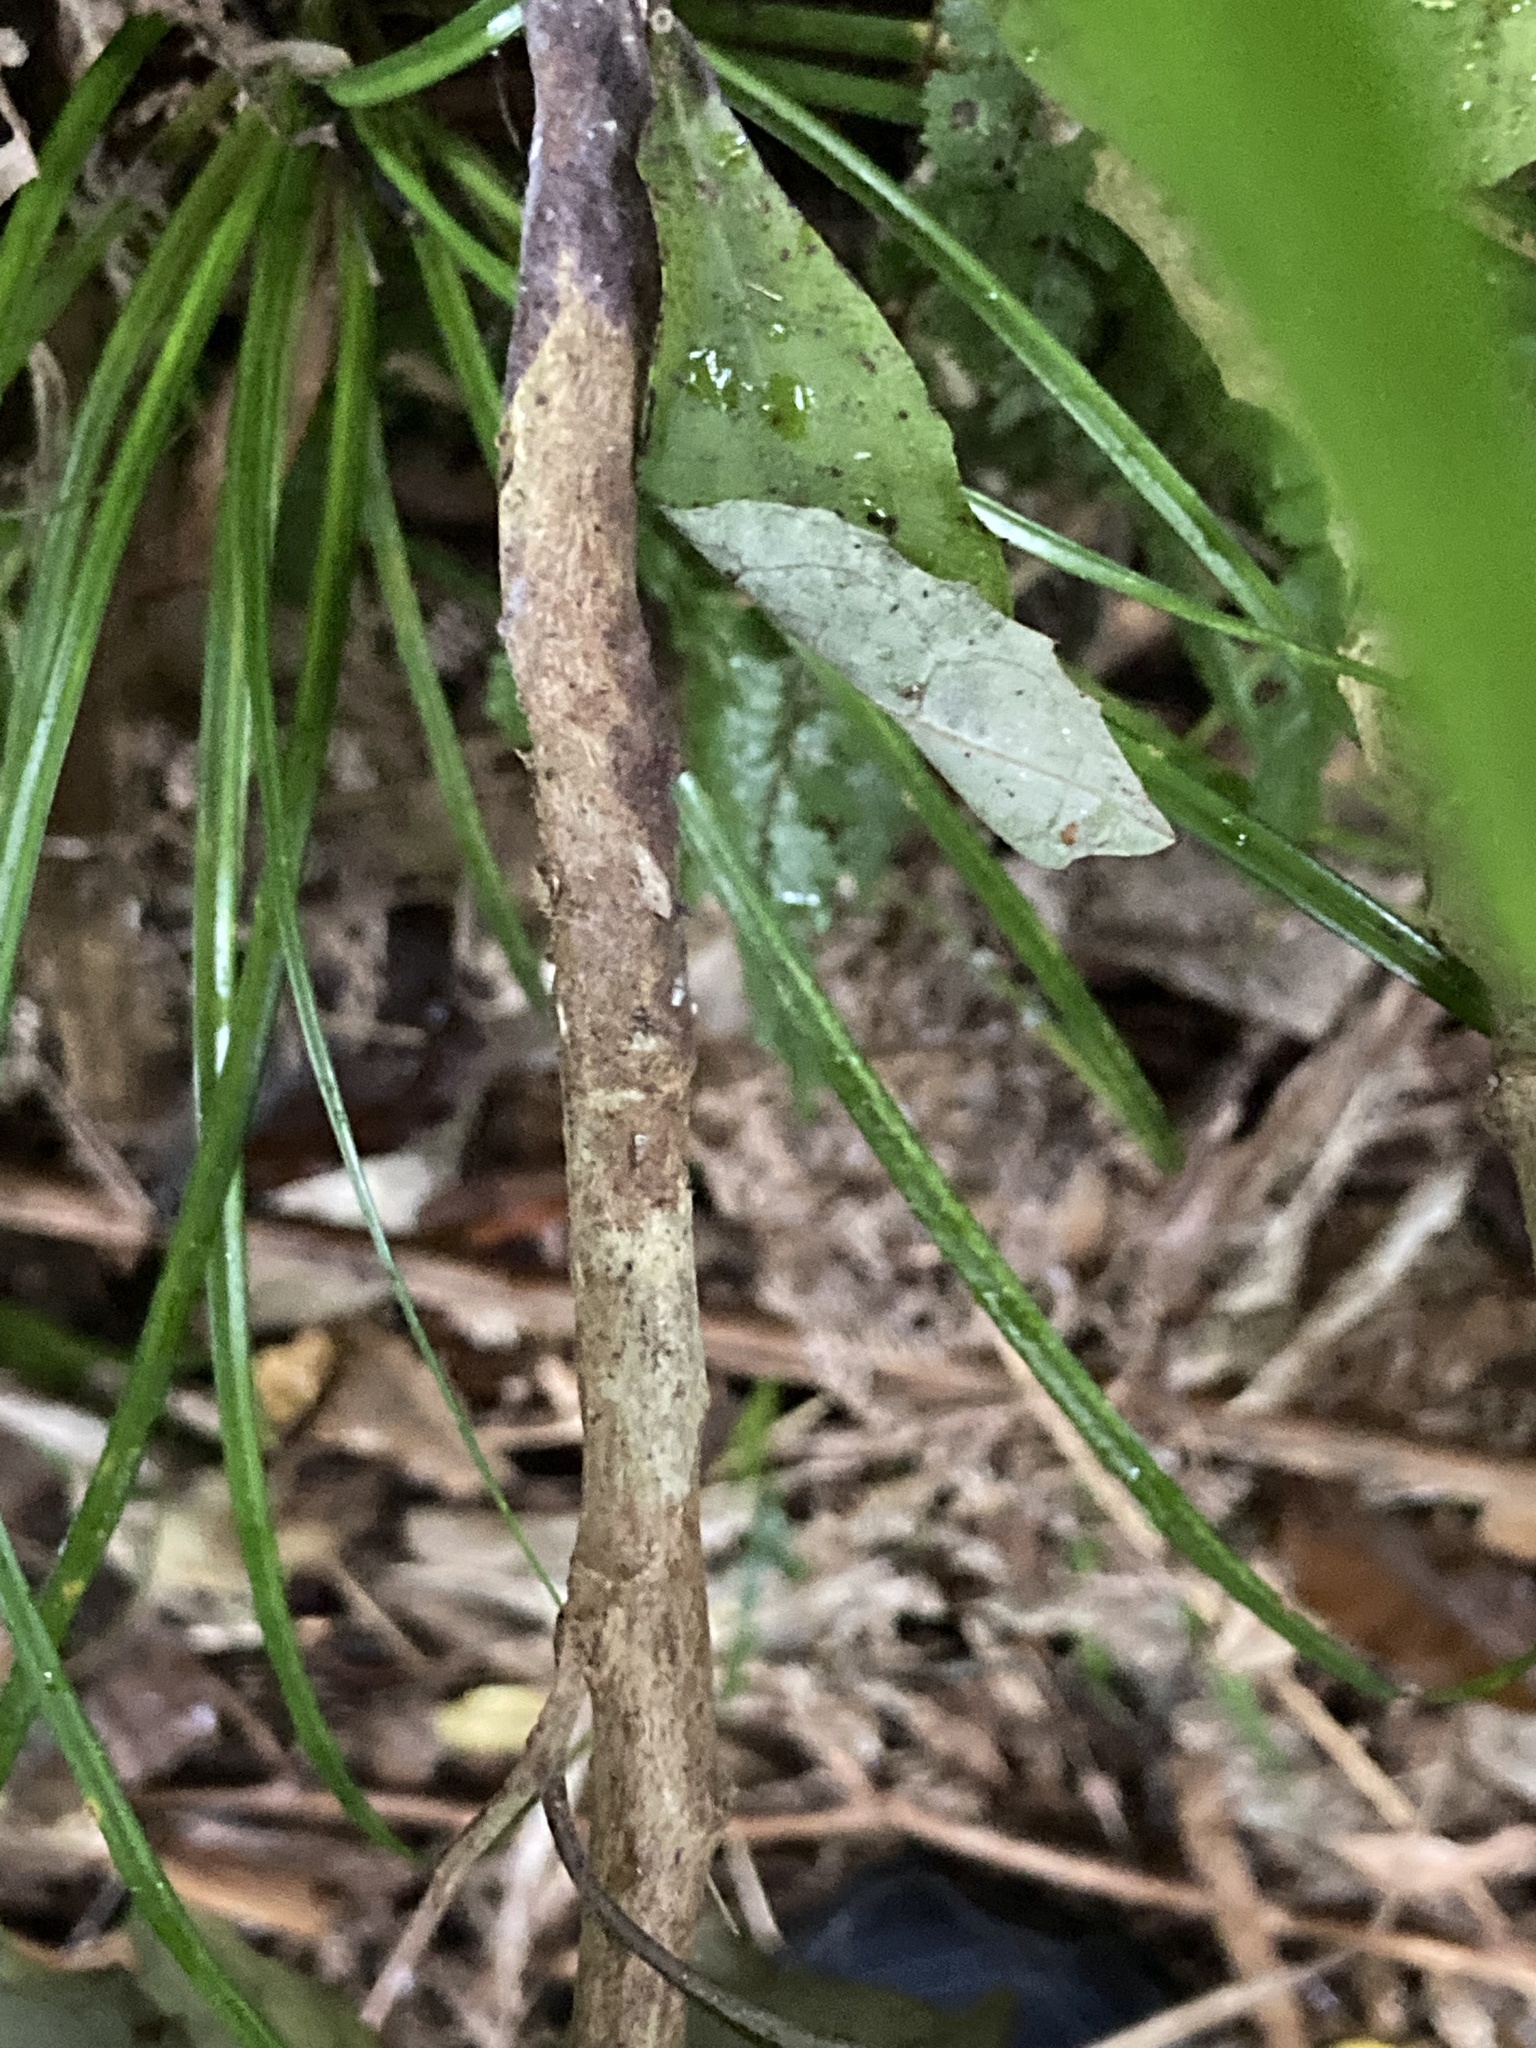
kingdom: Plantae
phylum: Tracheophyta
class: Magnoliopsida
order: Asterales
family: Asteraceae
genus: Olearia
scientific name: Olearia rani
